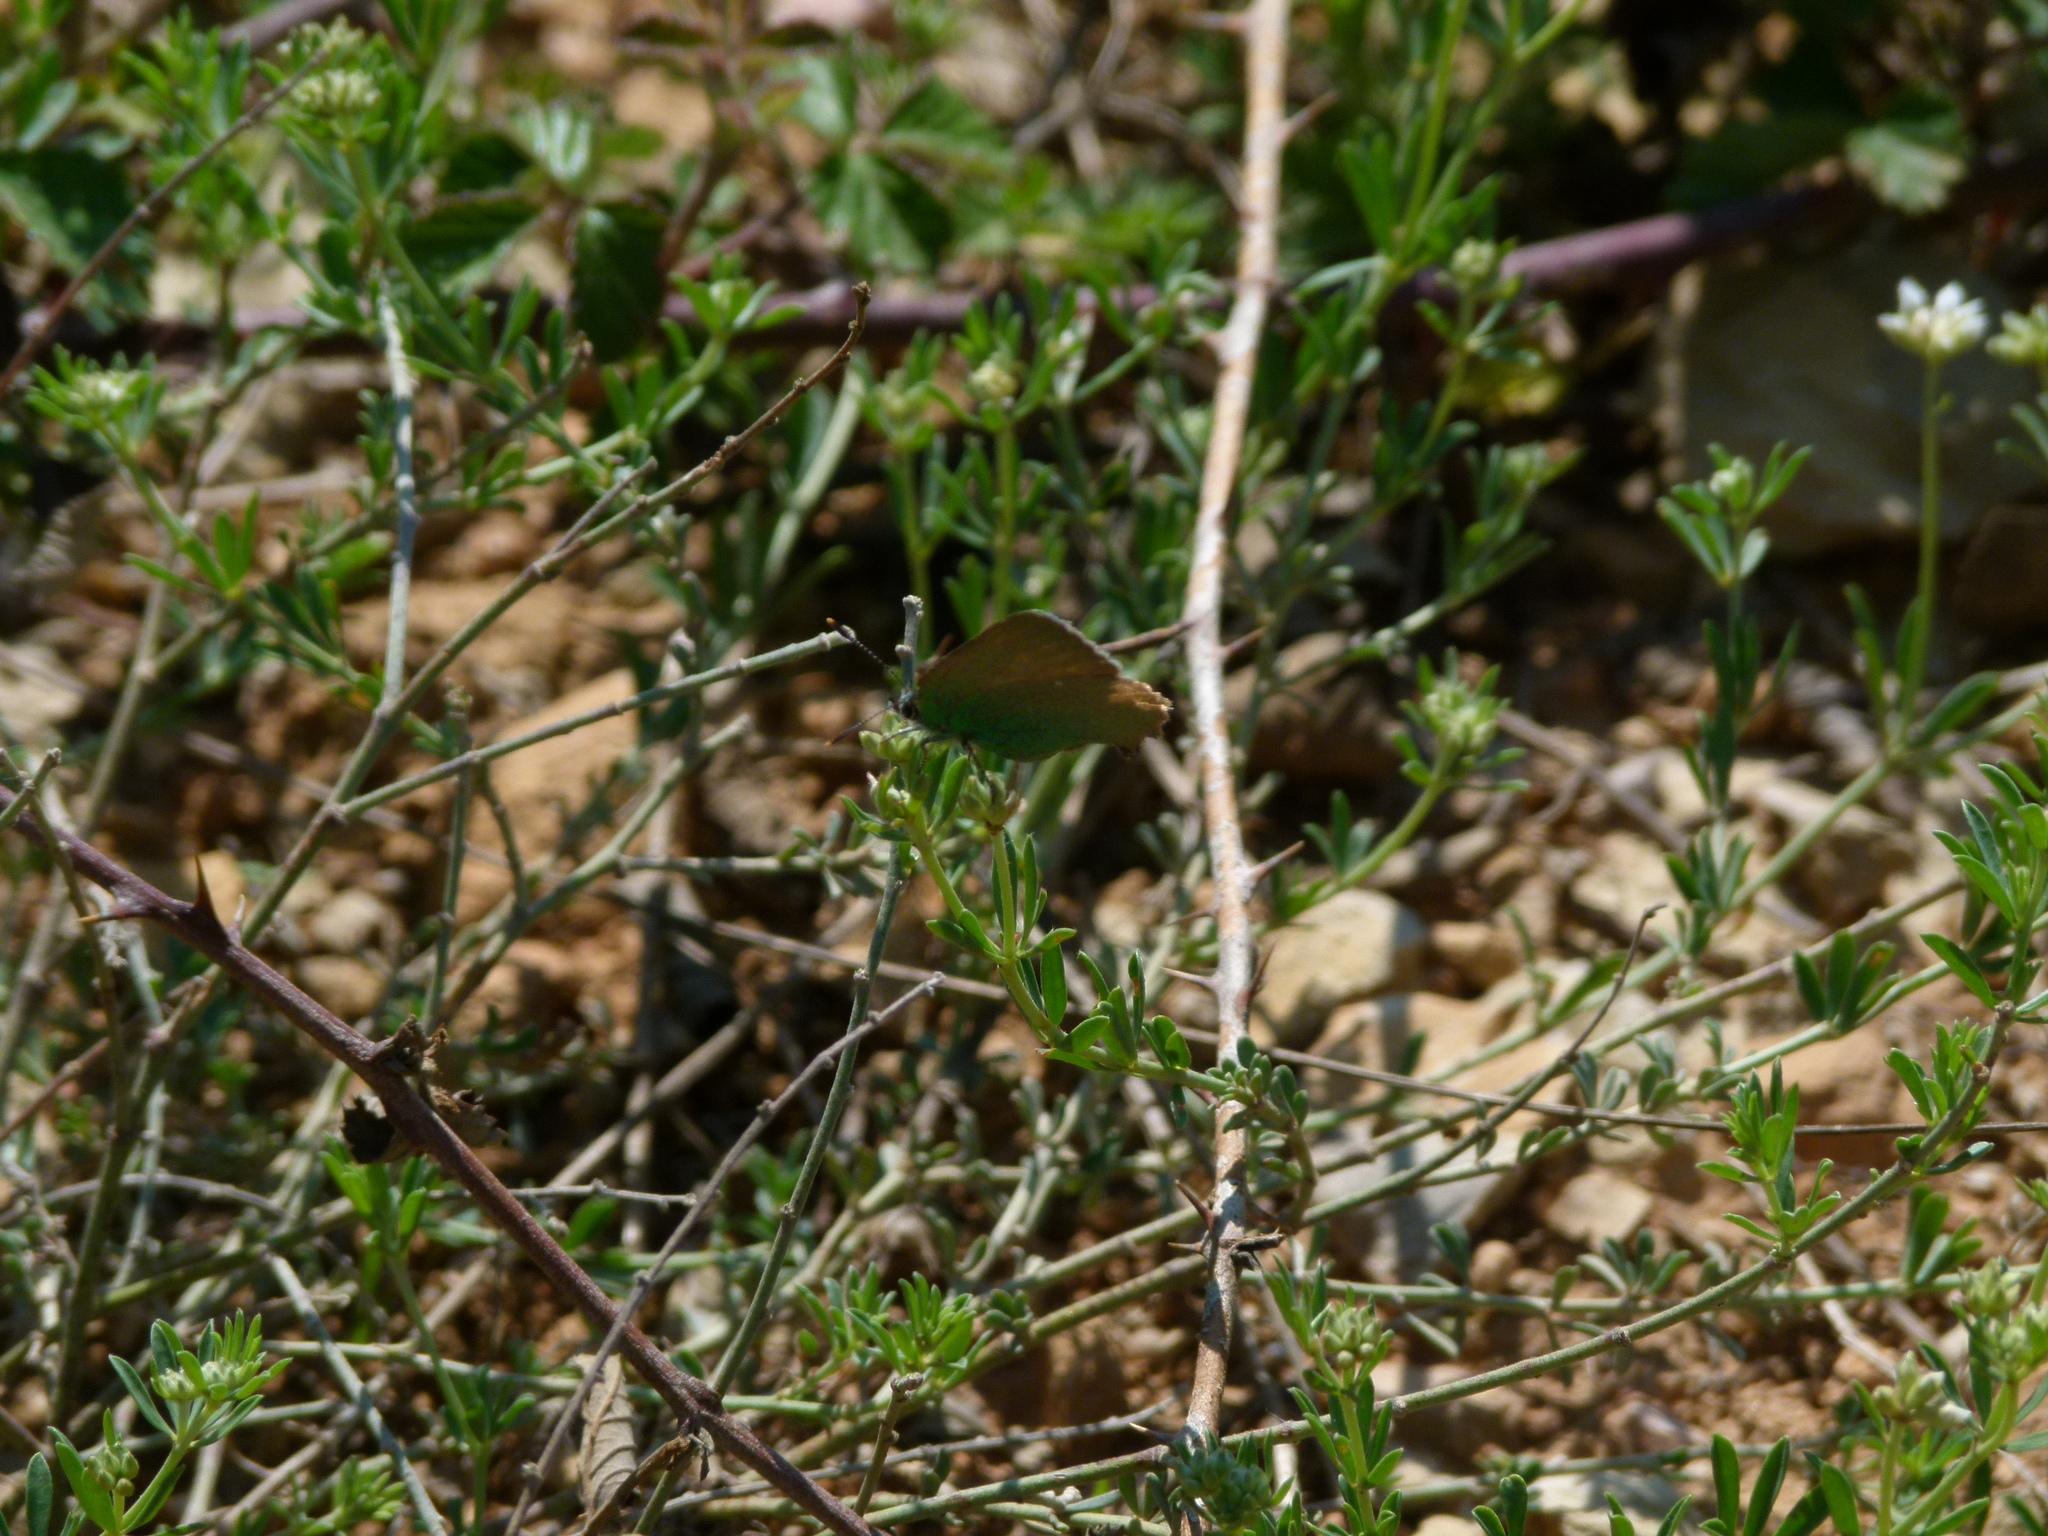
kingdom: Animalia
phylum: Arthropoda
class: Insecta
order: Lepidoptera
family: Lycaenidae
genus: Callophrys
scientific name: Callophrys rubi
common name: Green hairstreak
